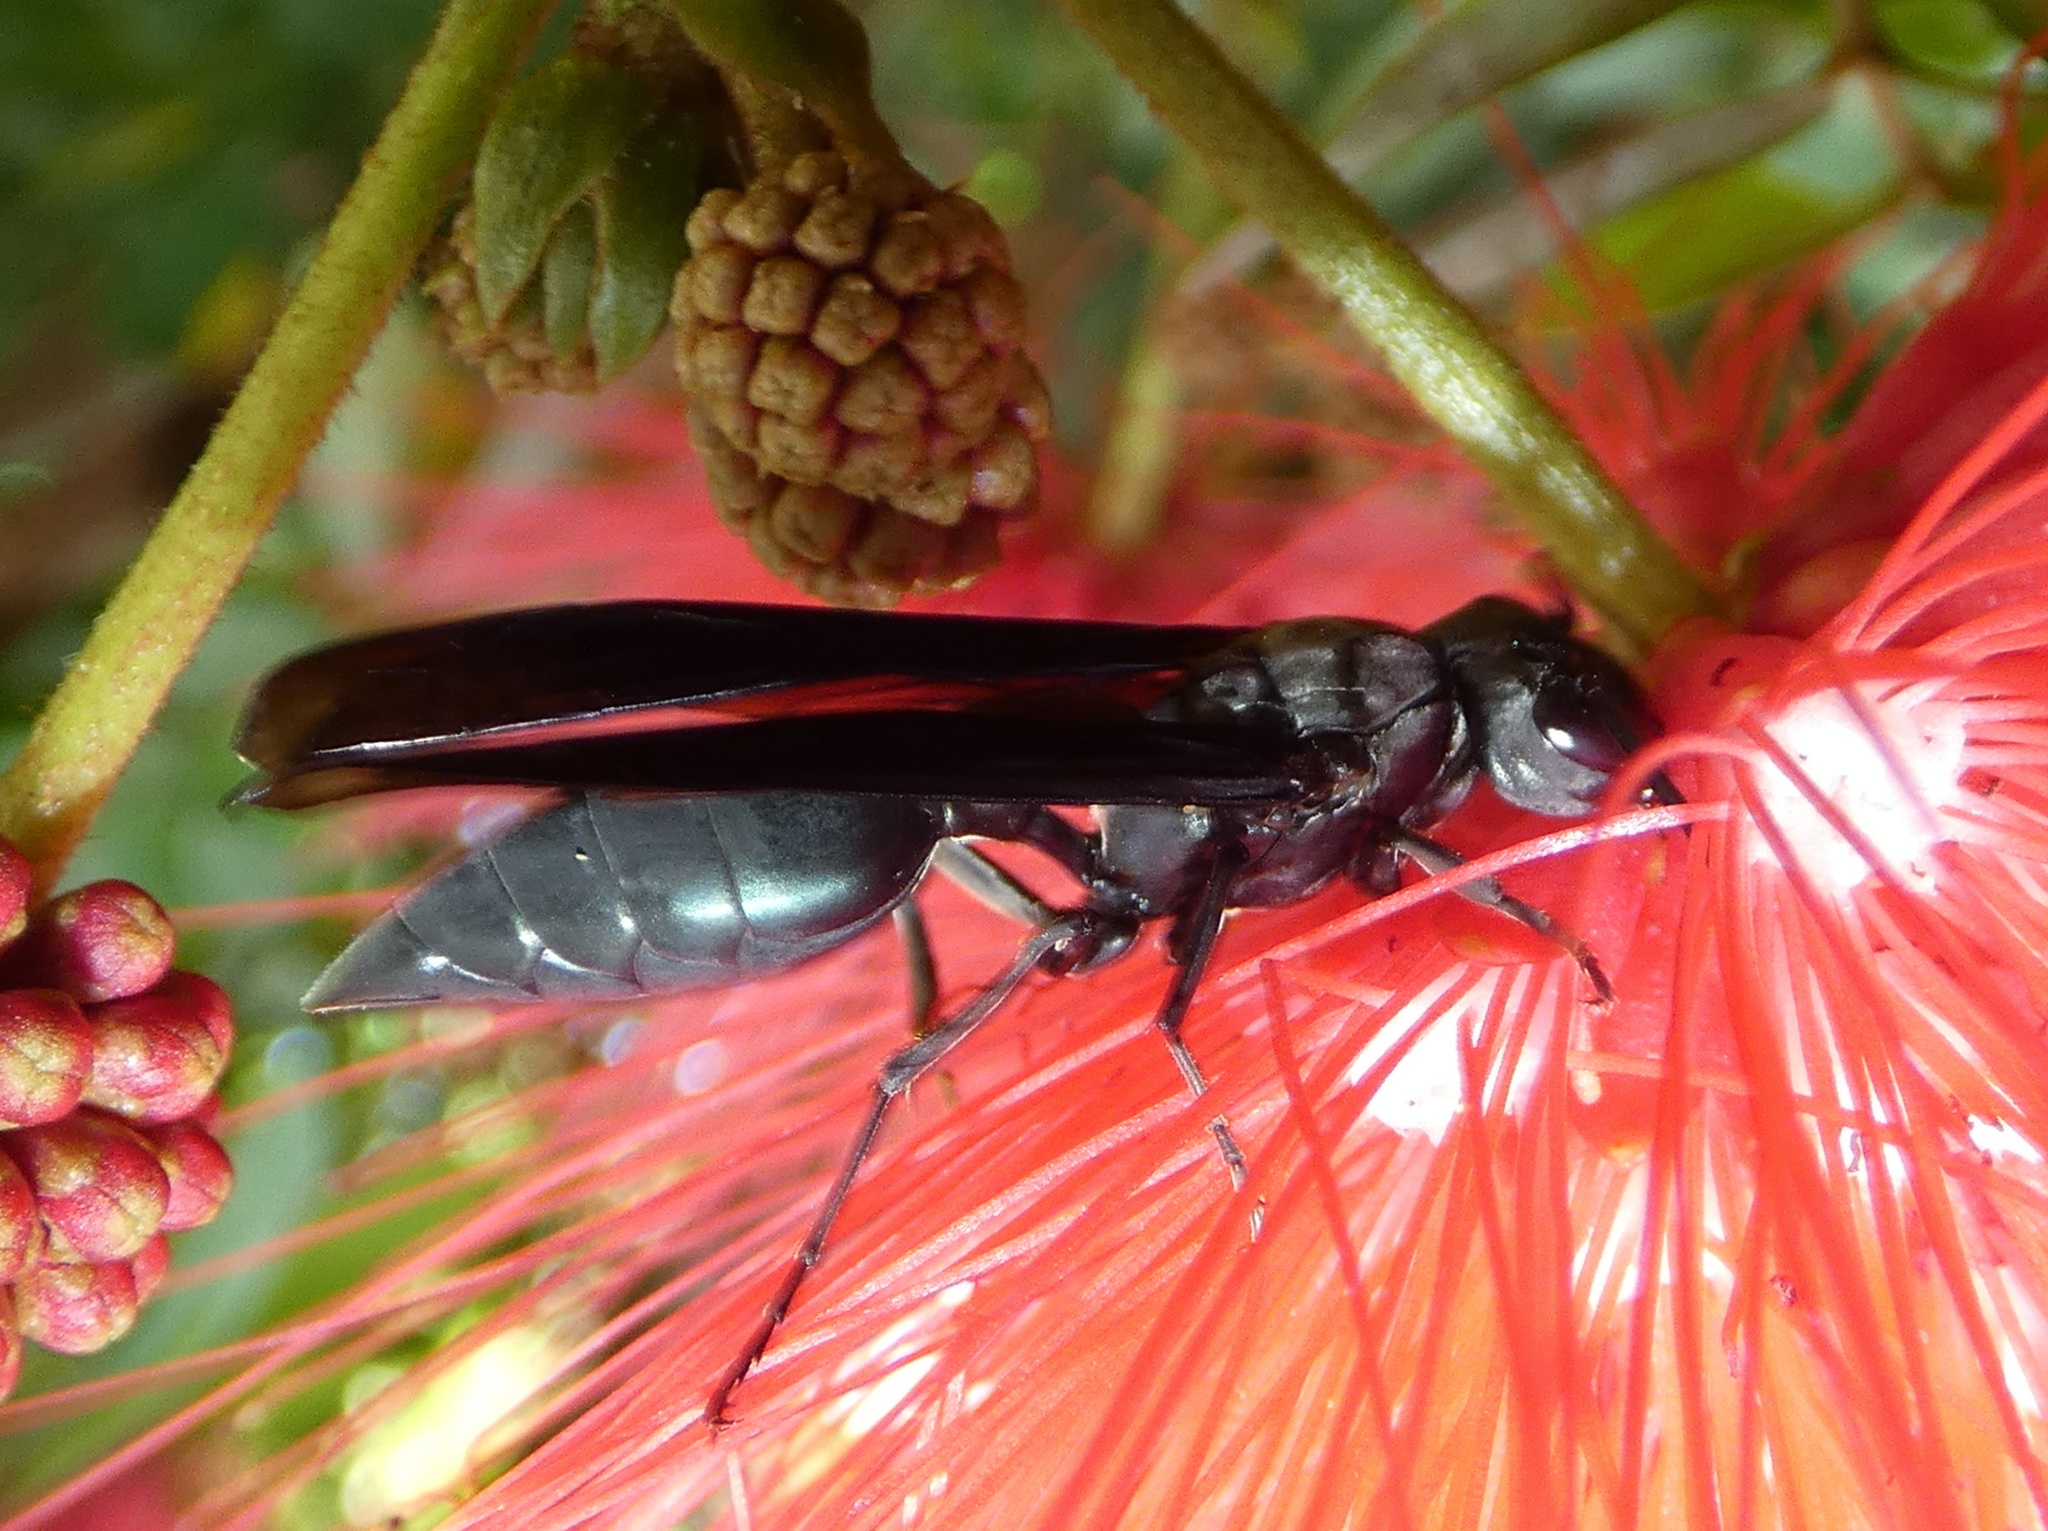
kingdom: Animalia
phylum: Arthropoda
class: Insecta
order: Hymenoptera
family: Vespidae
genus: Synoeca
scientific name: Synoeca septentrionalis
